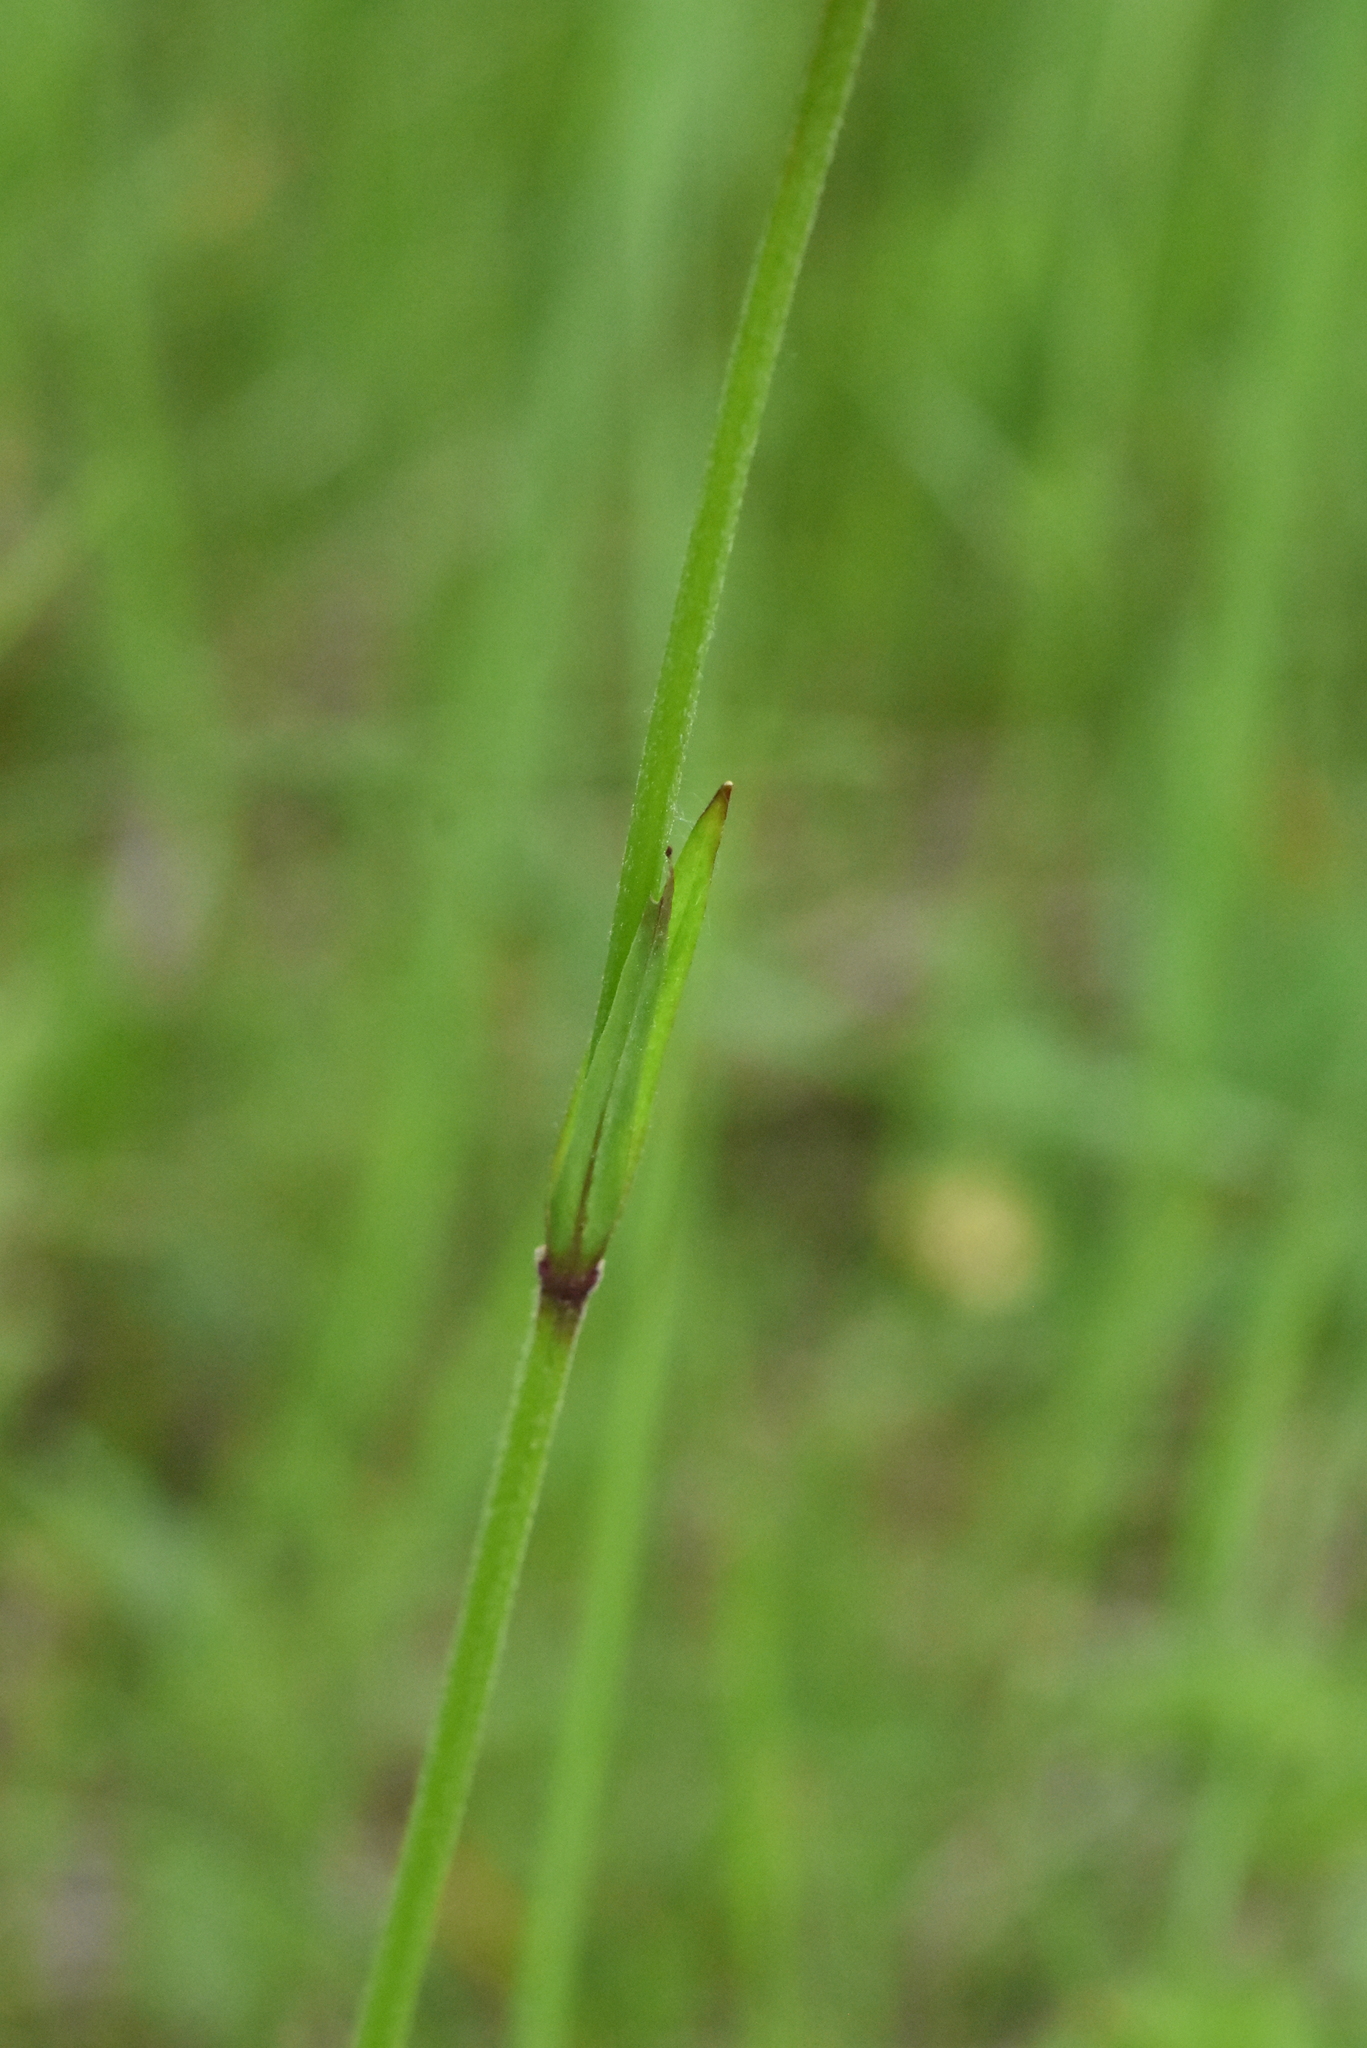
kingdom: Plantae
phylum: Tracheophyta
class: Magnoliopsida
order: Caryophyllales
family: Caryophyllaceae
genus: Silene
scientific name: Silene flos-cuculi
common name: Ragged-robin
